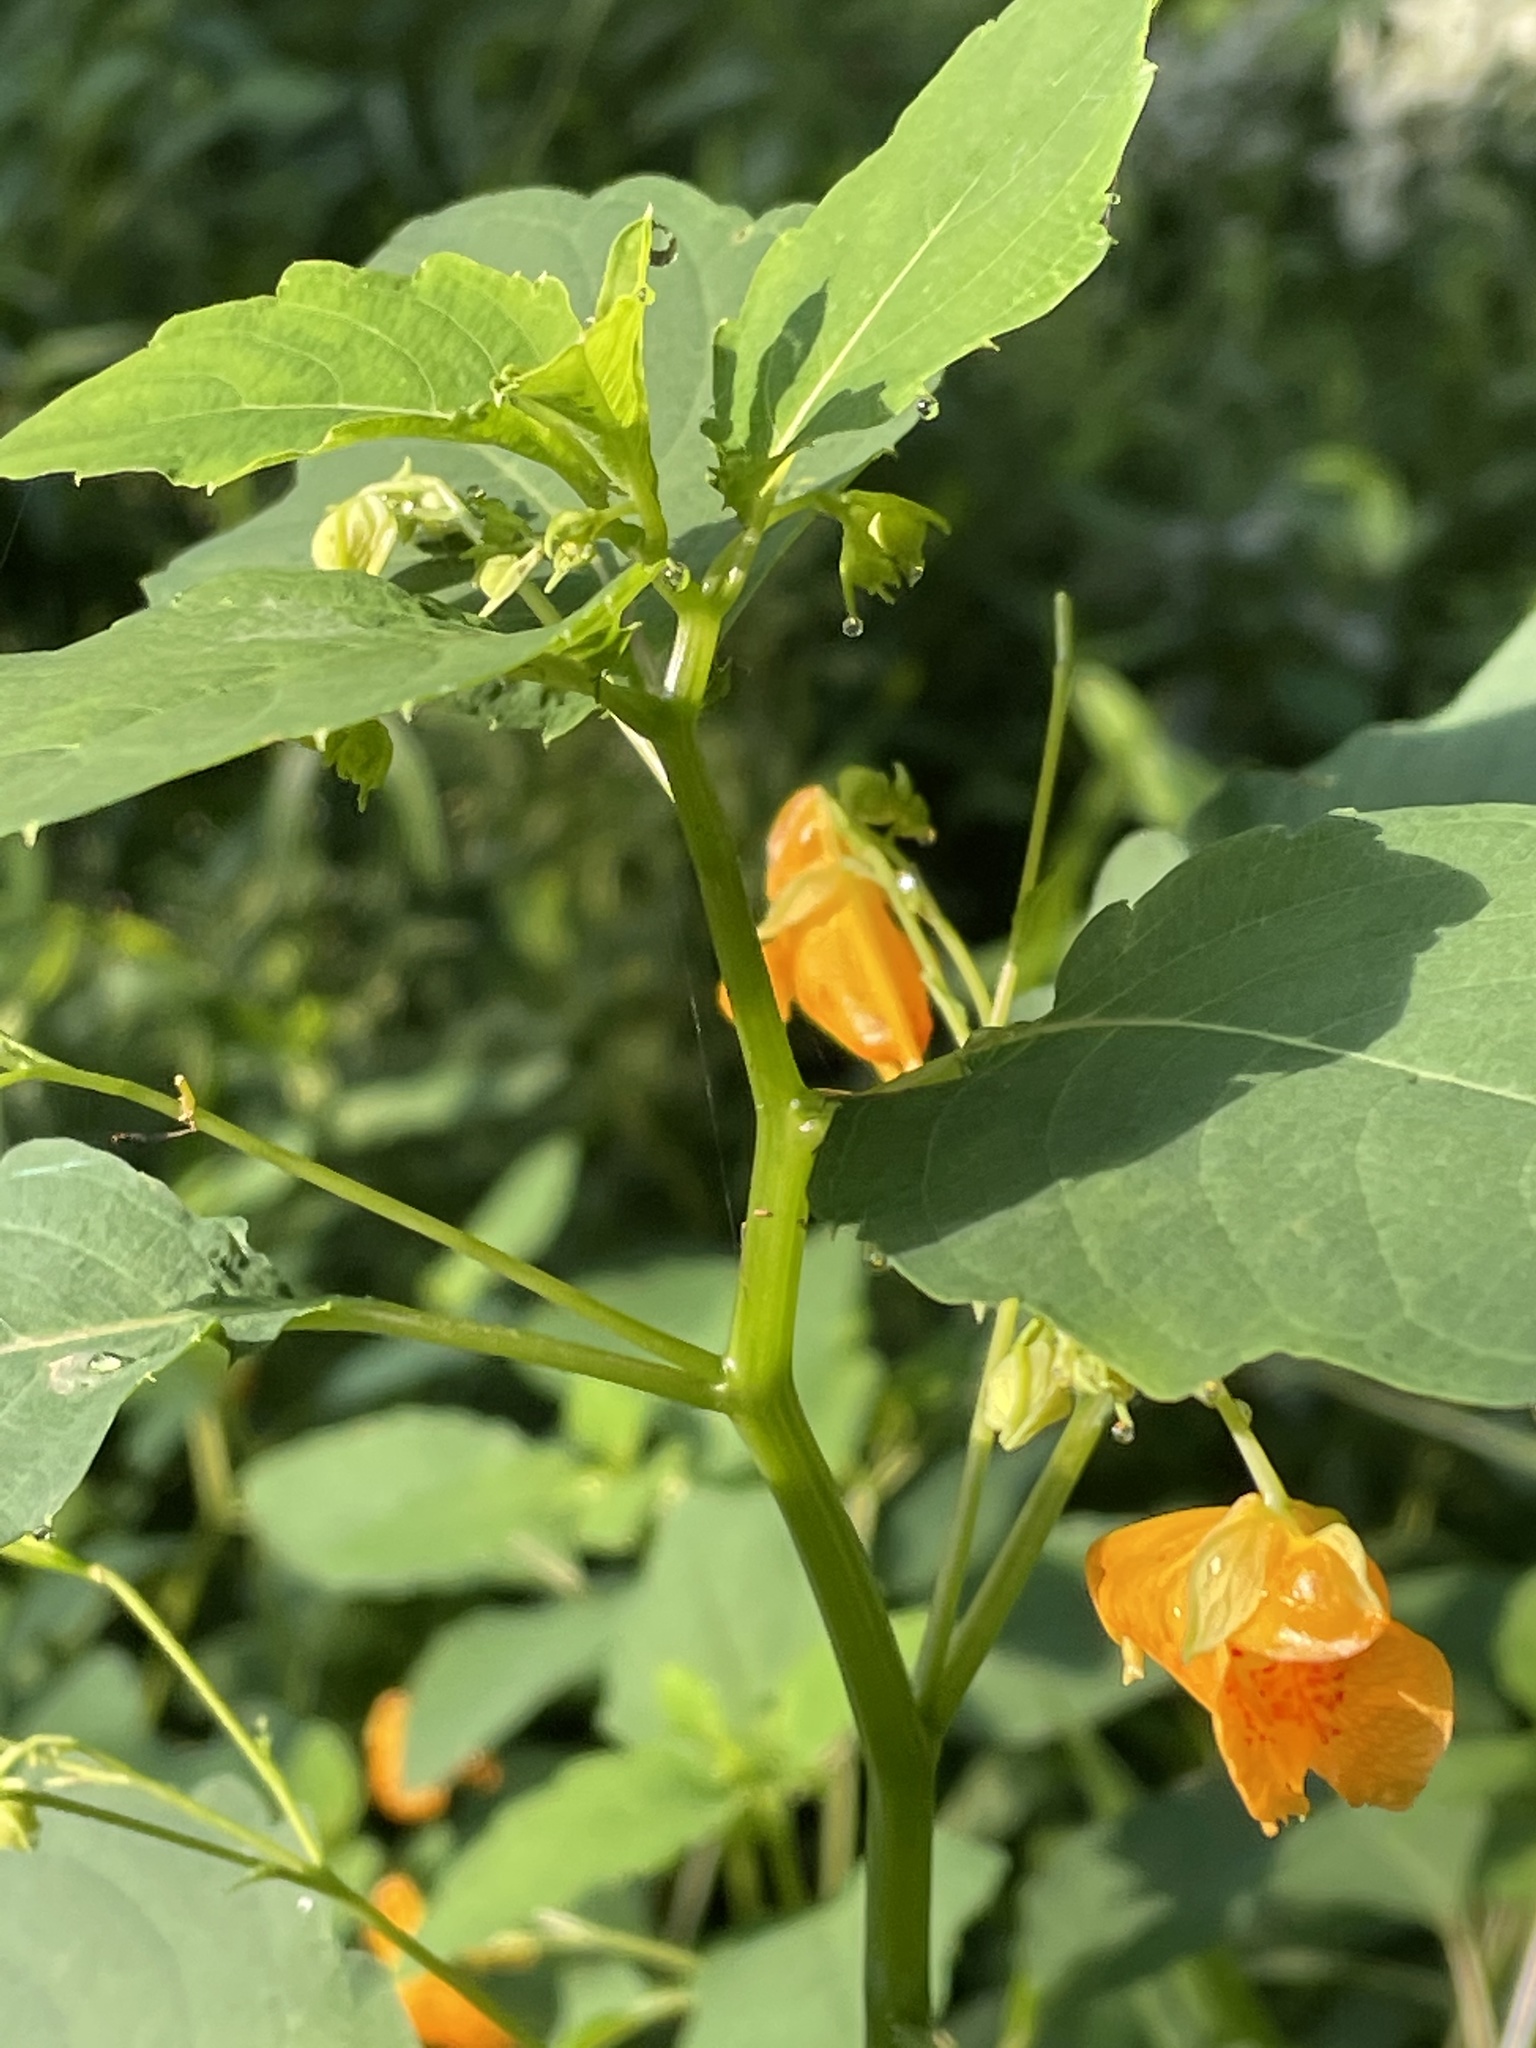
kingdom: Plantae
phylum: Tracheophyta
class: Magnoliopsida
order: Ericales
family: Balsaminaceae
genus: Impatiens
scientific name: Impatiens capensis
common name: Orange balsam
